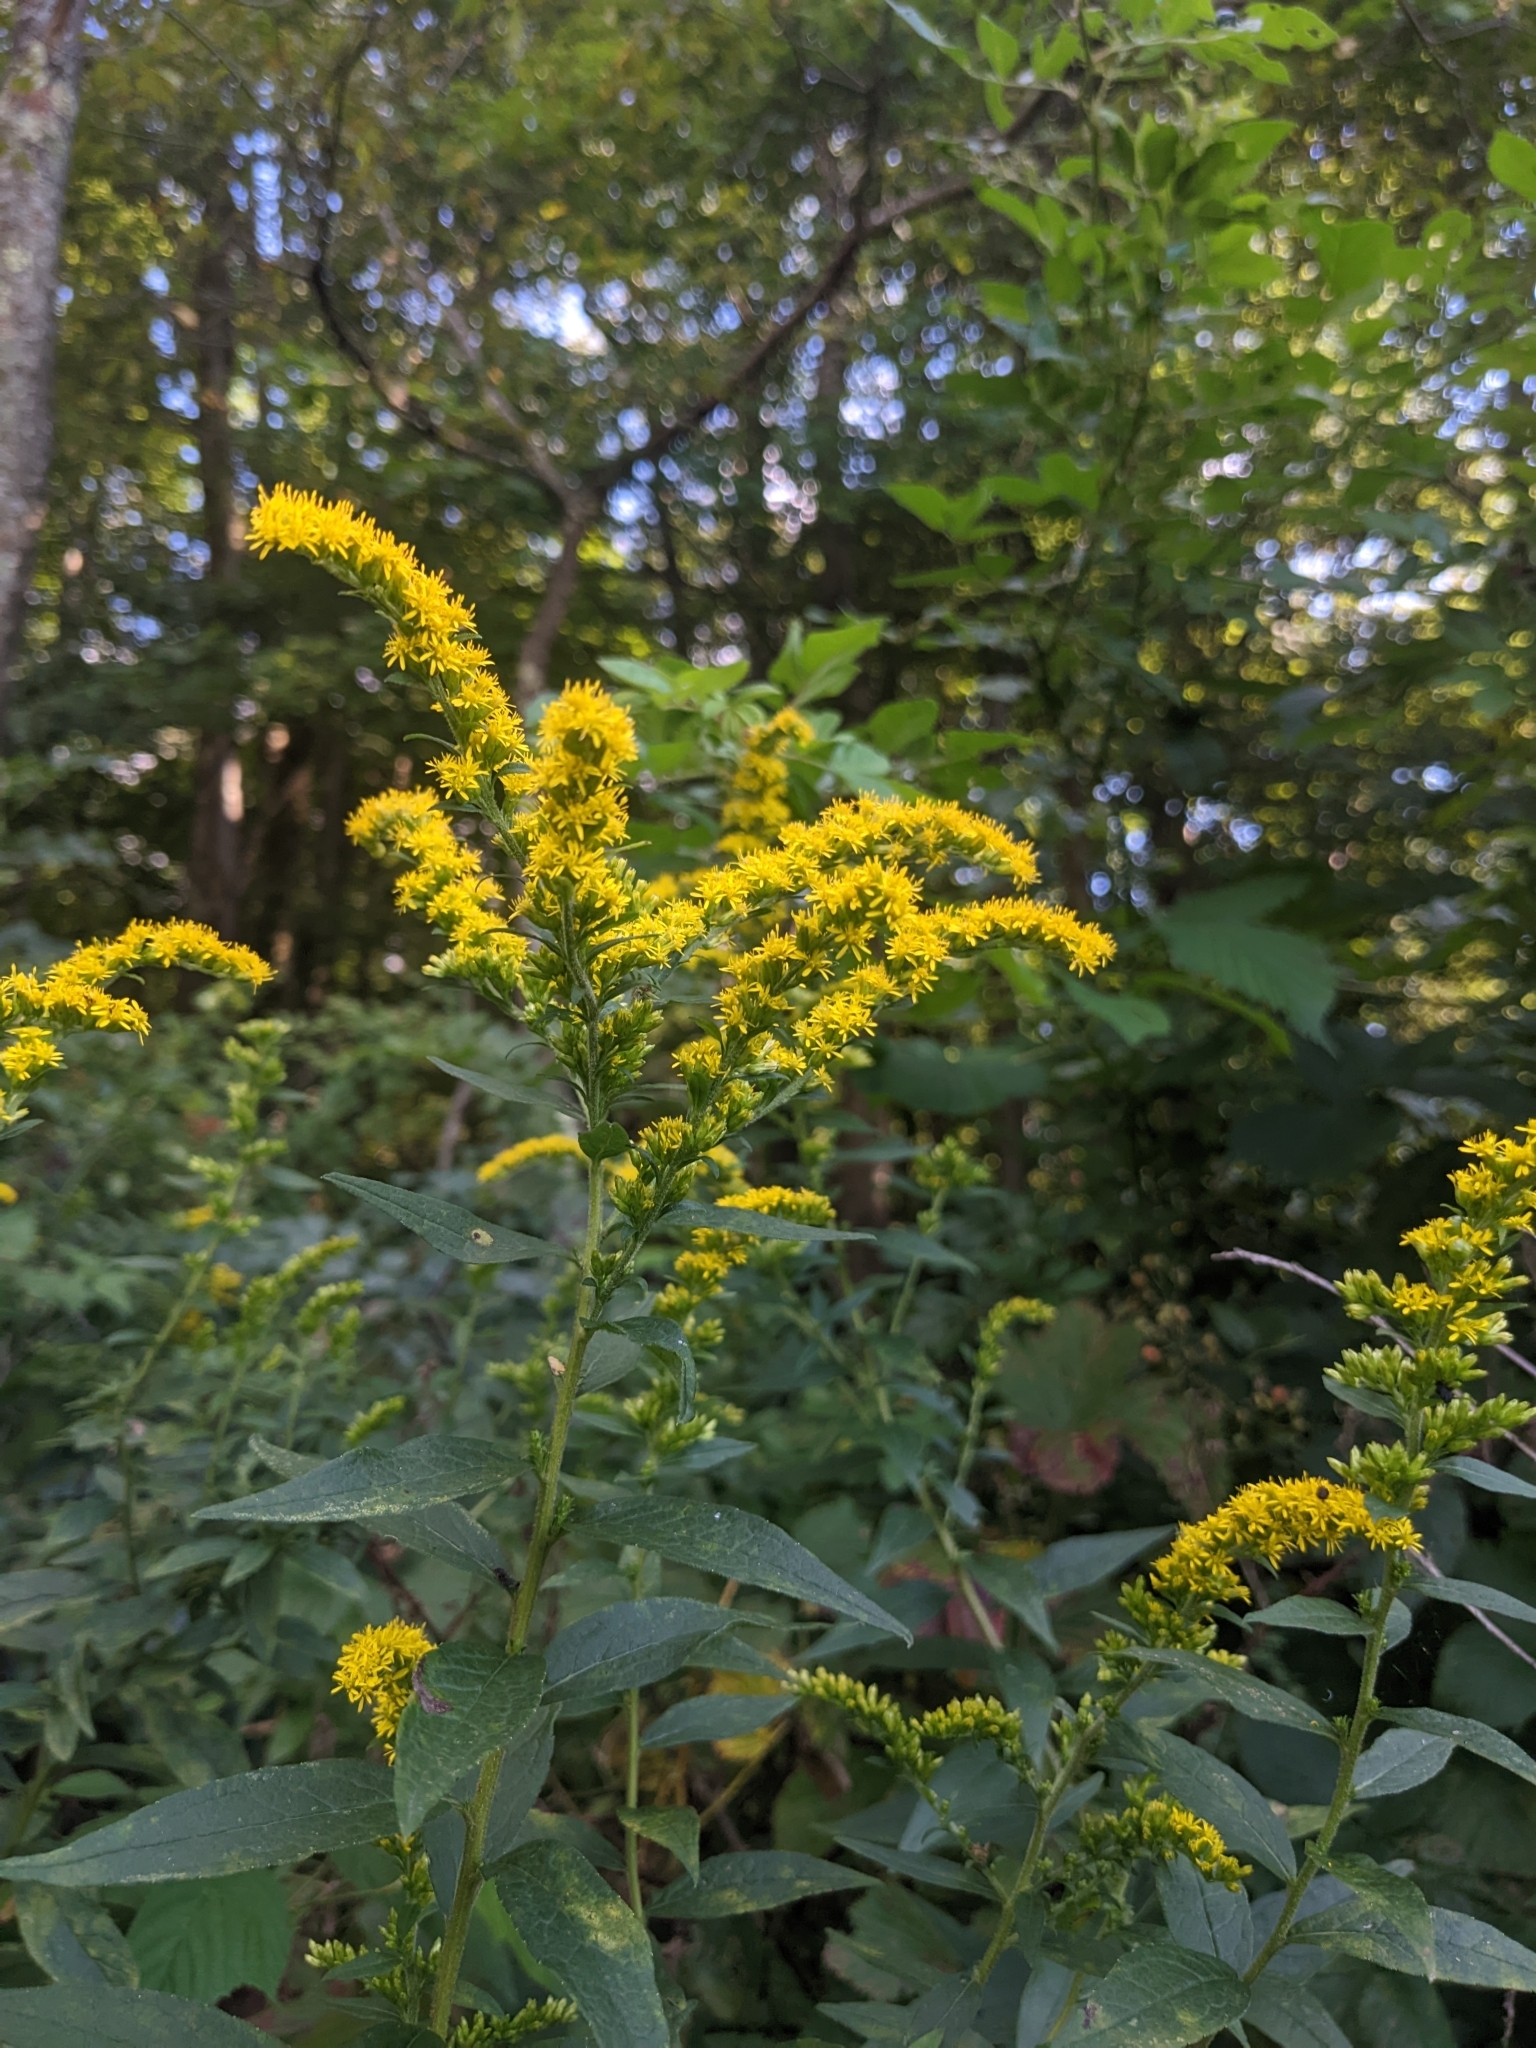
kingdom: Plantae
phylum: Tracheophyta
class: Magnoliopsida
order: Asterales
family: Asteraceae
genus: Solidago
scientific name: Solidago rugosa
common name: Rough-stemmed goldenrod
